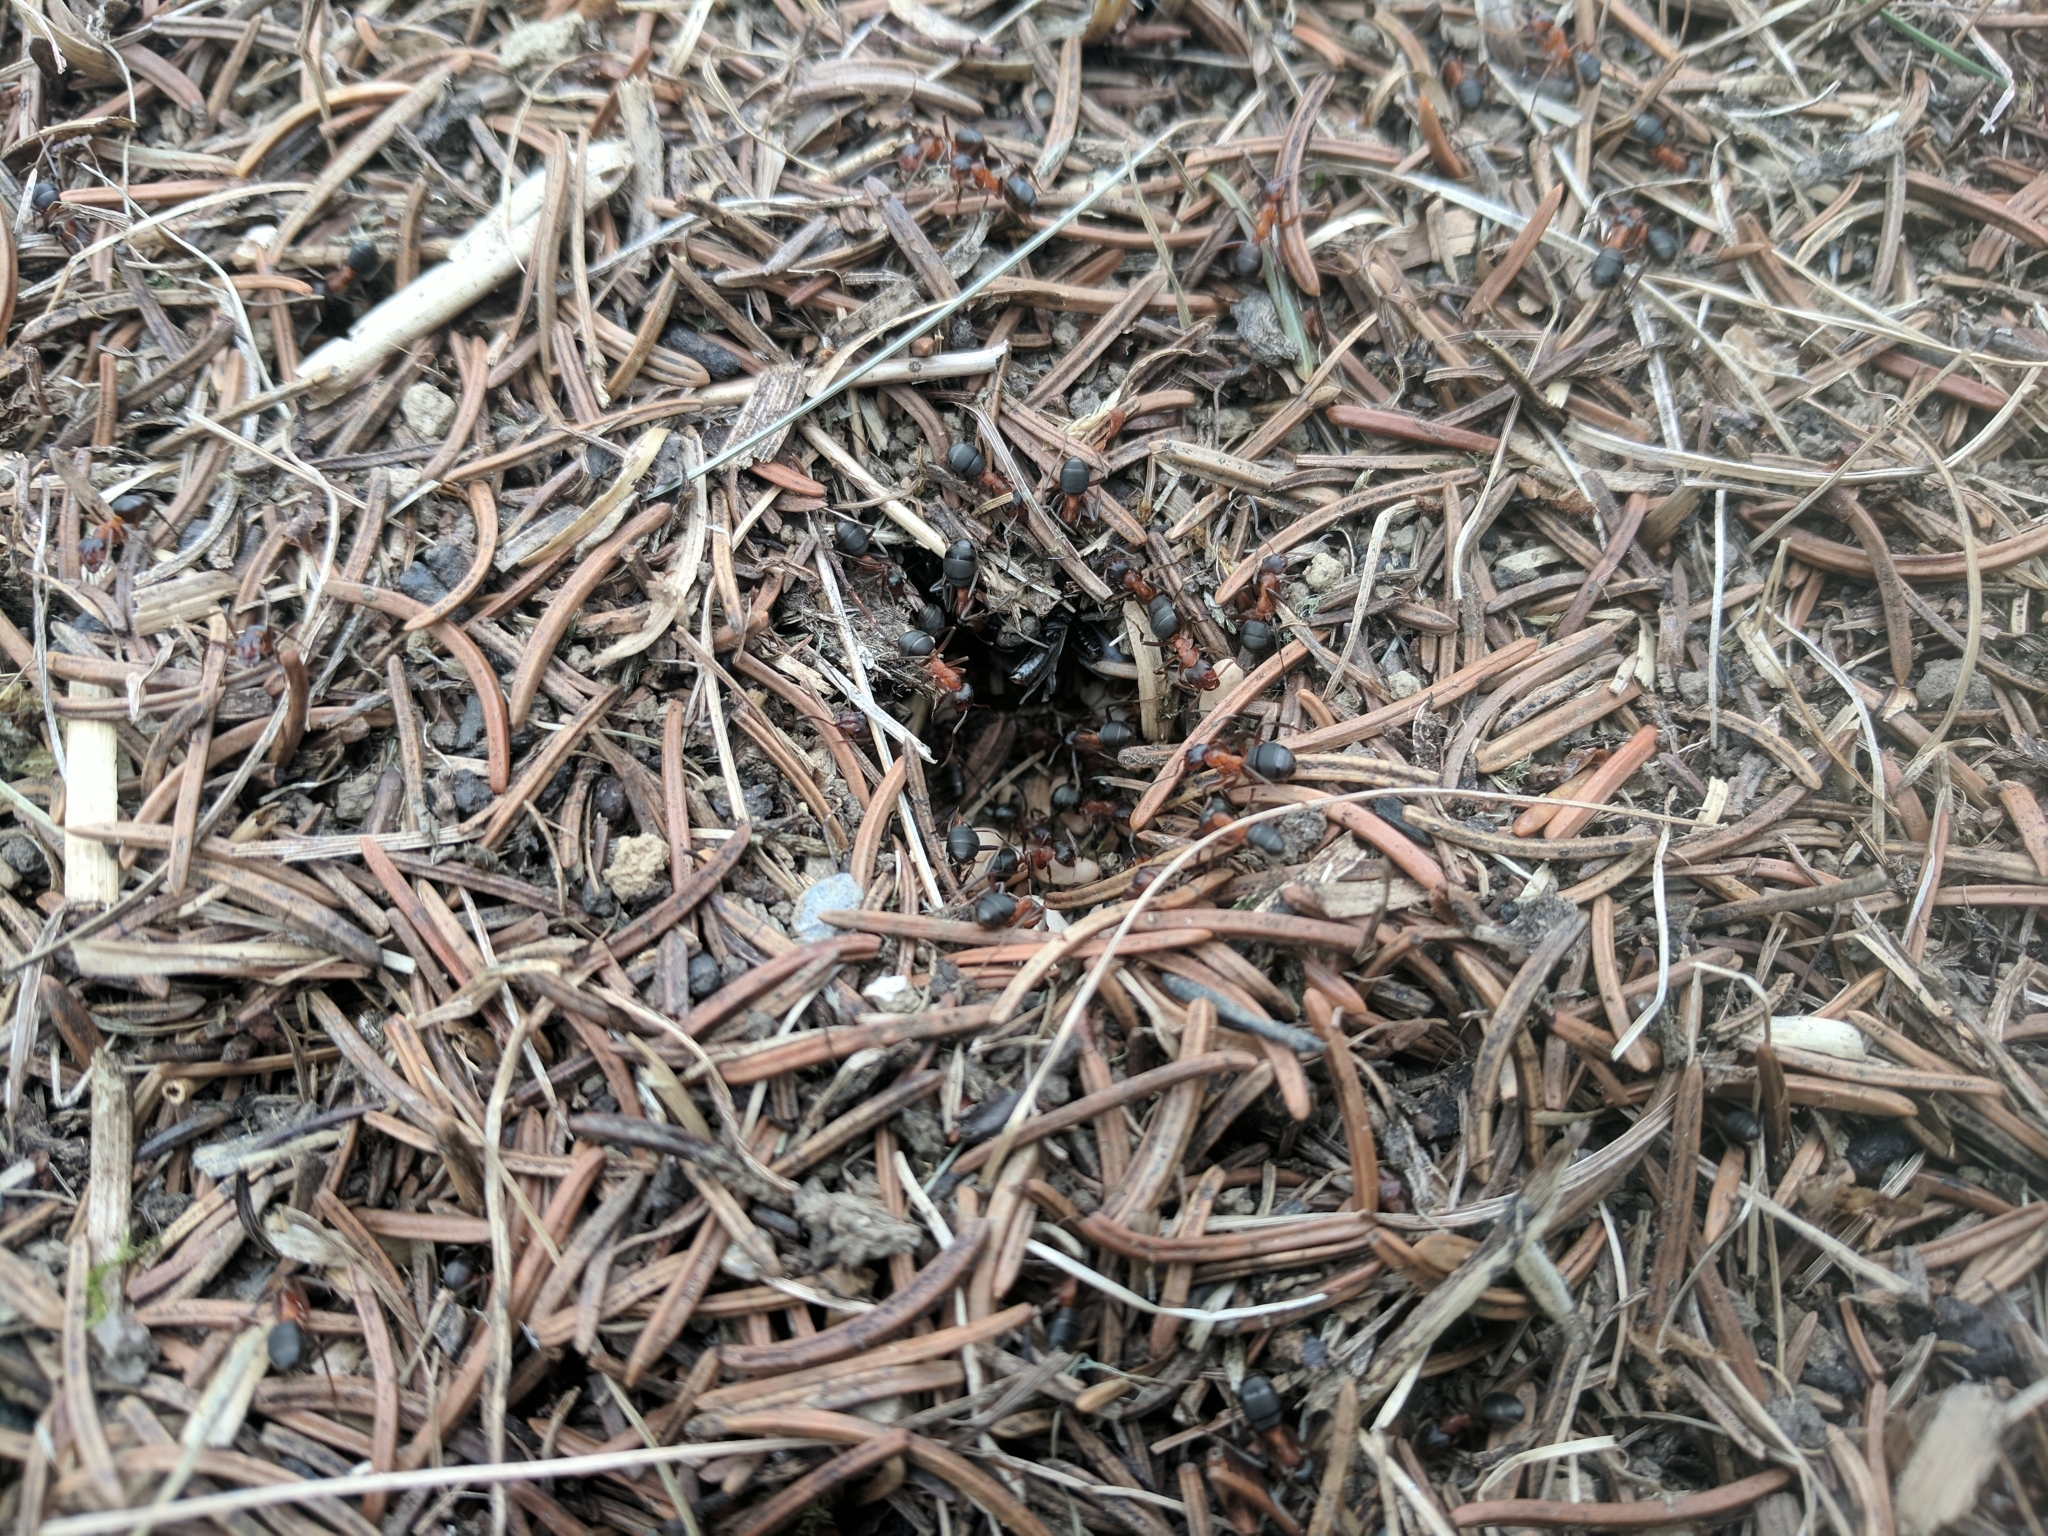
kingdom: Animalia
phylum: Arthropoda
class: Insecta
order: Hymenoptera
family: Formicidae
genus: Formica
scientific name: Formica exsecta
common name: Narrow headed ant
